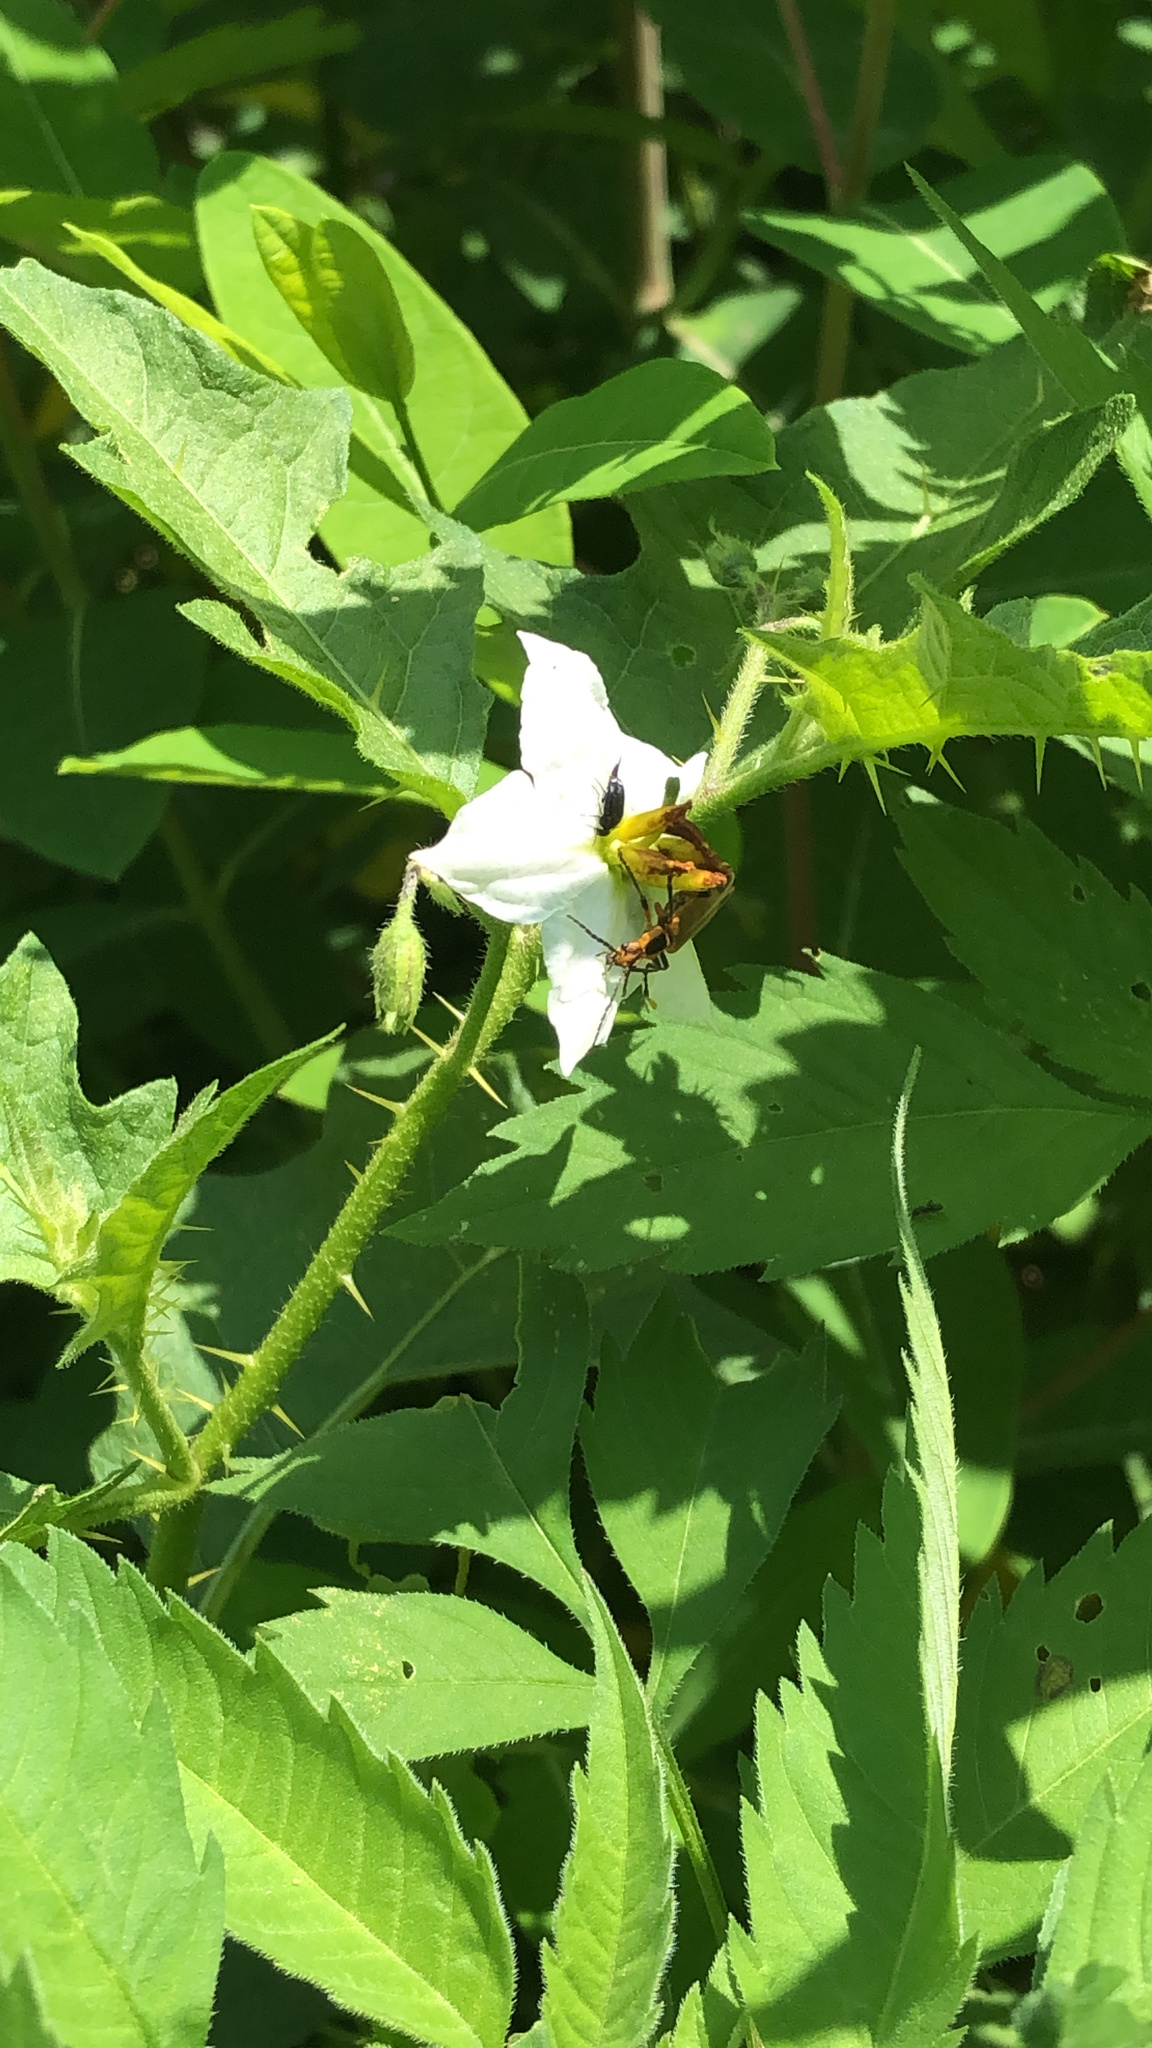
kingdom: Plantae
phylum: Tracheophyta
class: Magnoliopsida
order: Solanales
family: Solanaceae
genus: Solanum
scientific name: Solanum carolinense
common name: Horse-nettle
